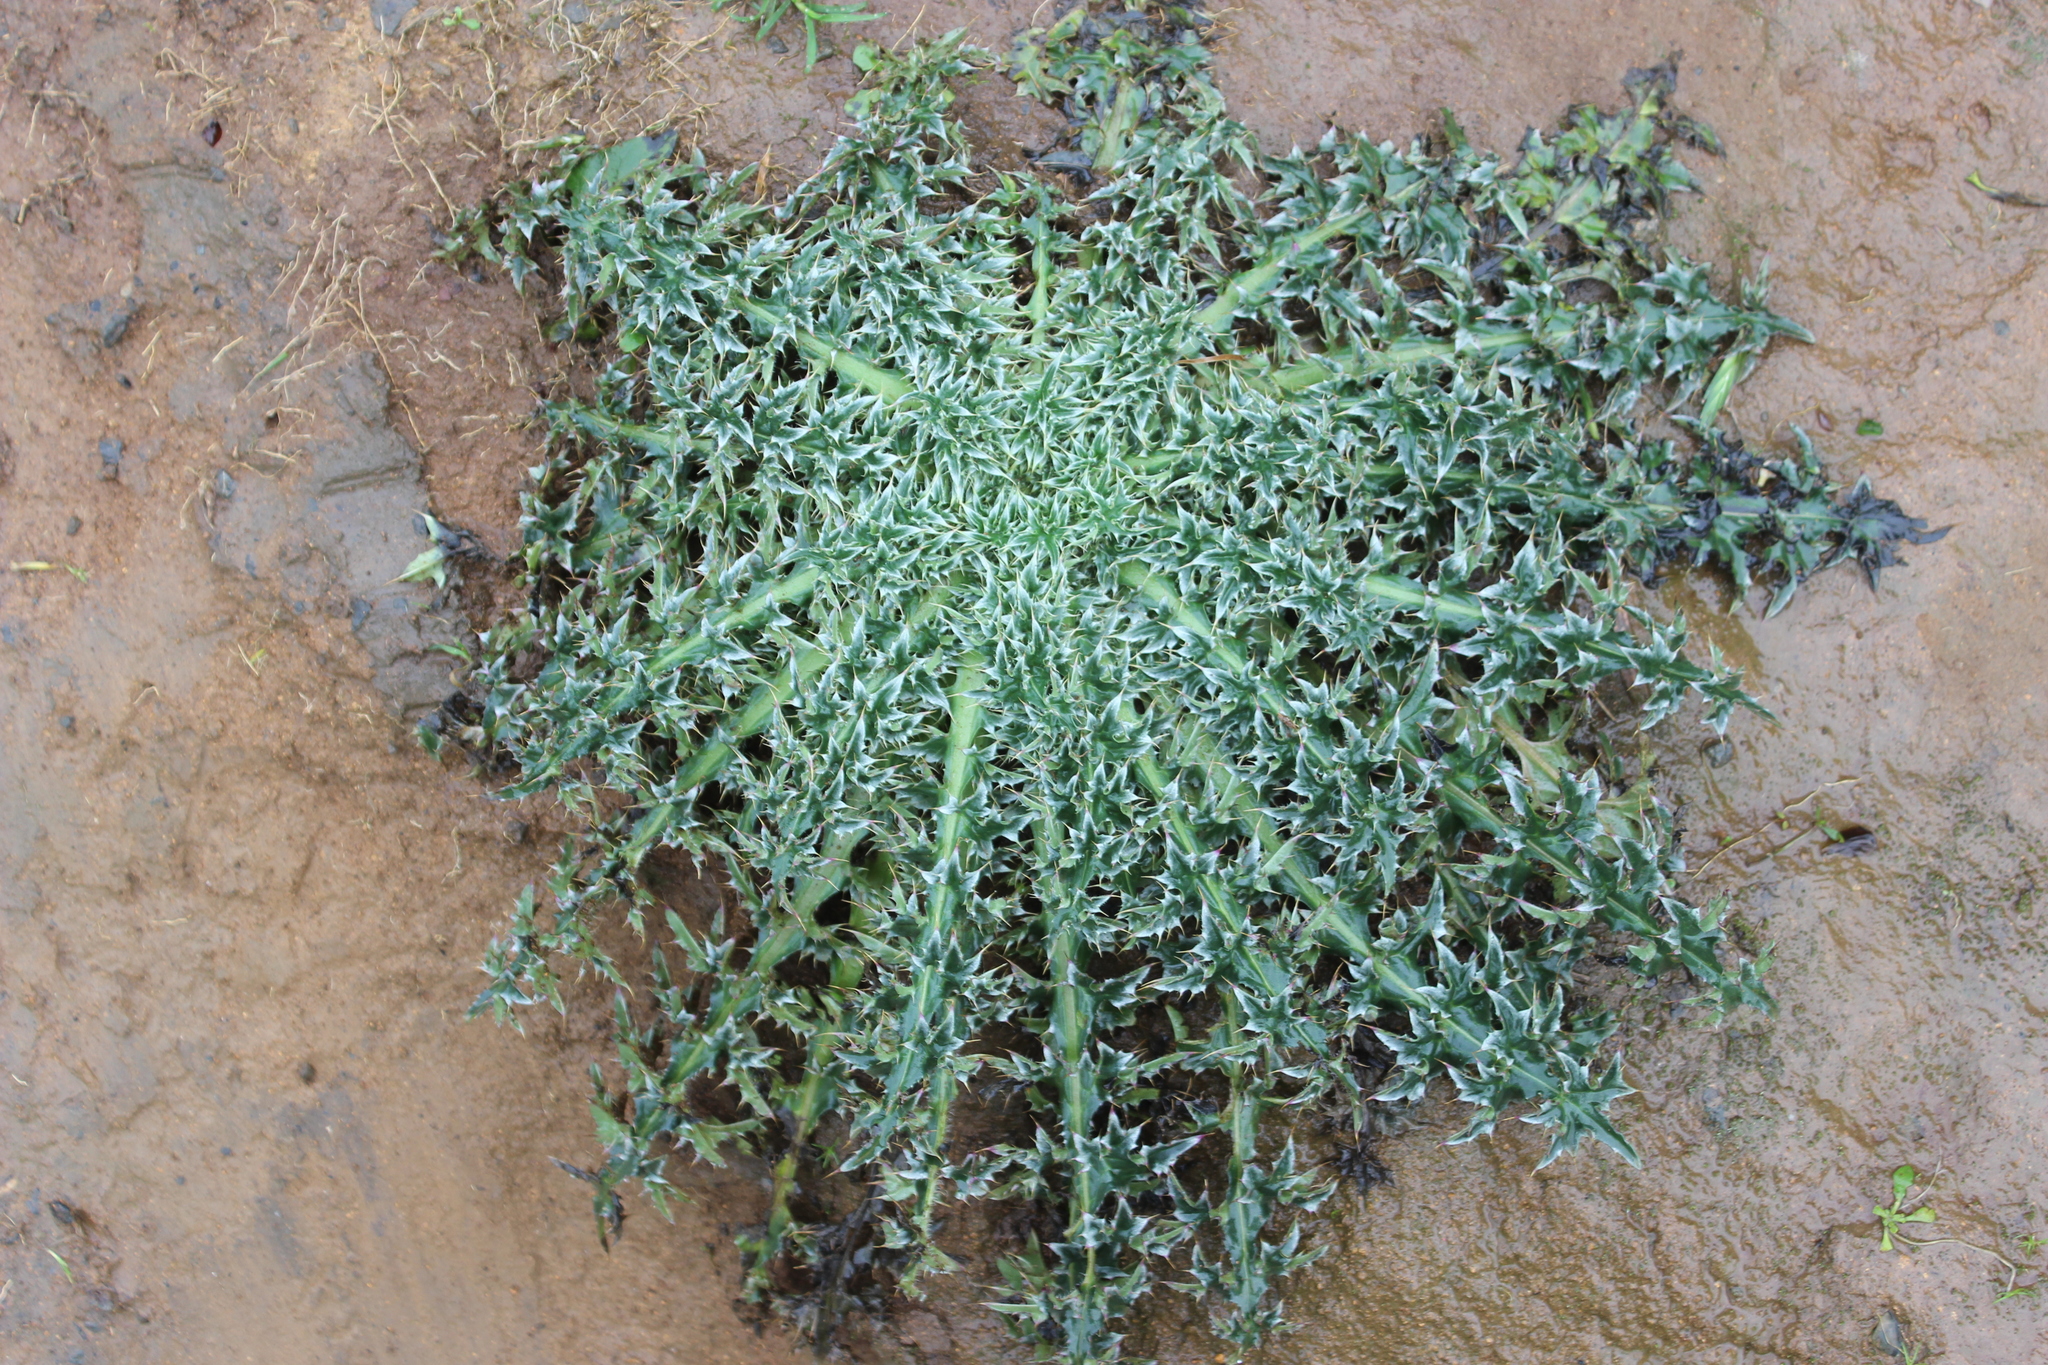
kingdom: Plantae
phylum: Tracheophyta
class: Magnoliopsida
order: Asterales
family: Asteraceae
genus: Carduus
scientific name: Carduus nutans
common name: Musk thistle
